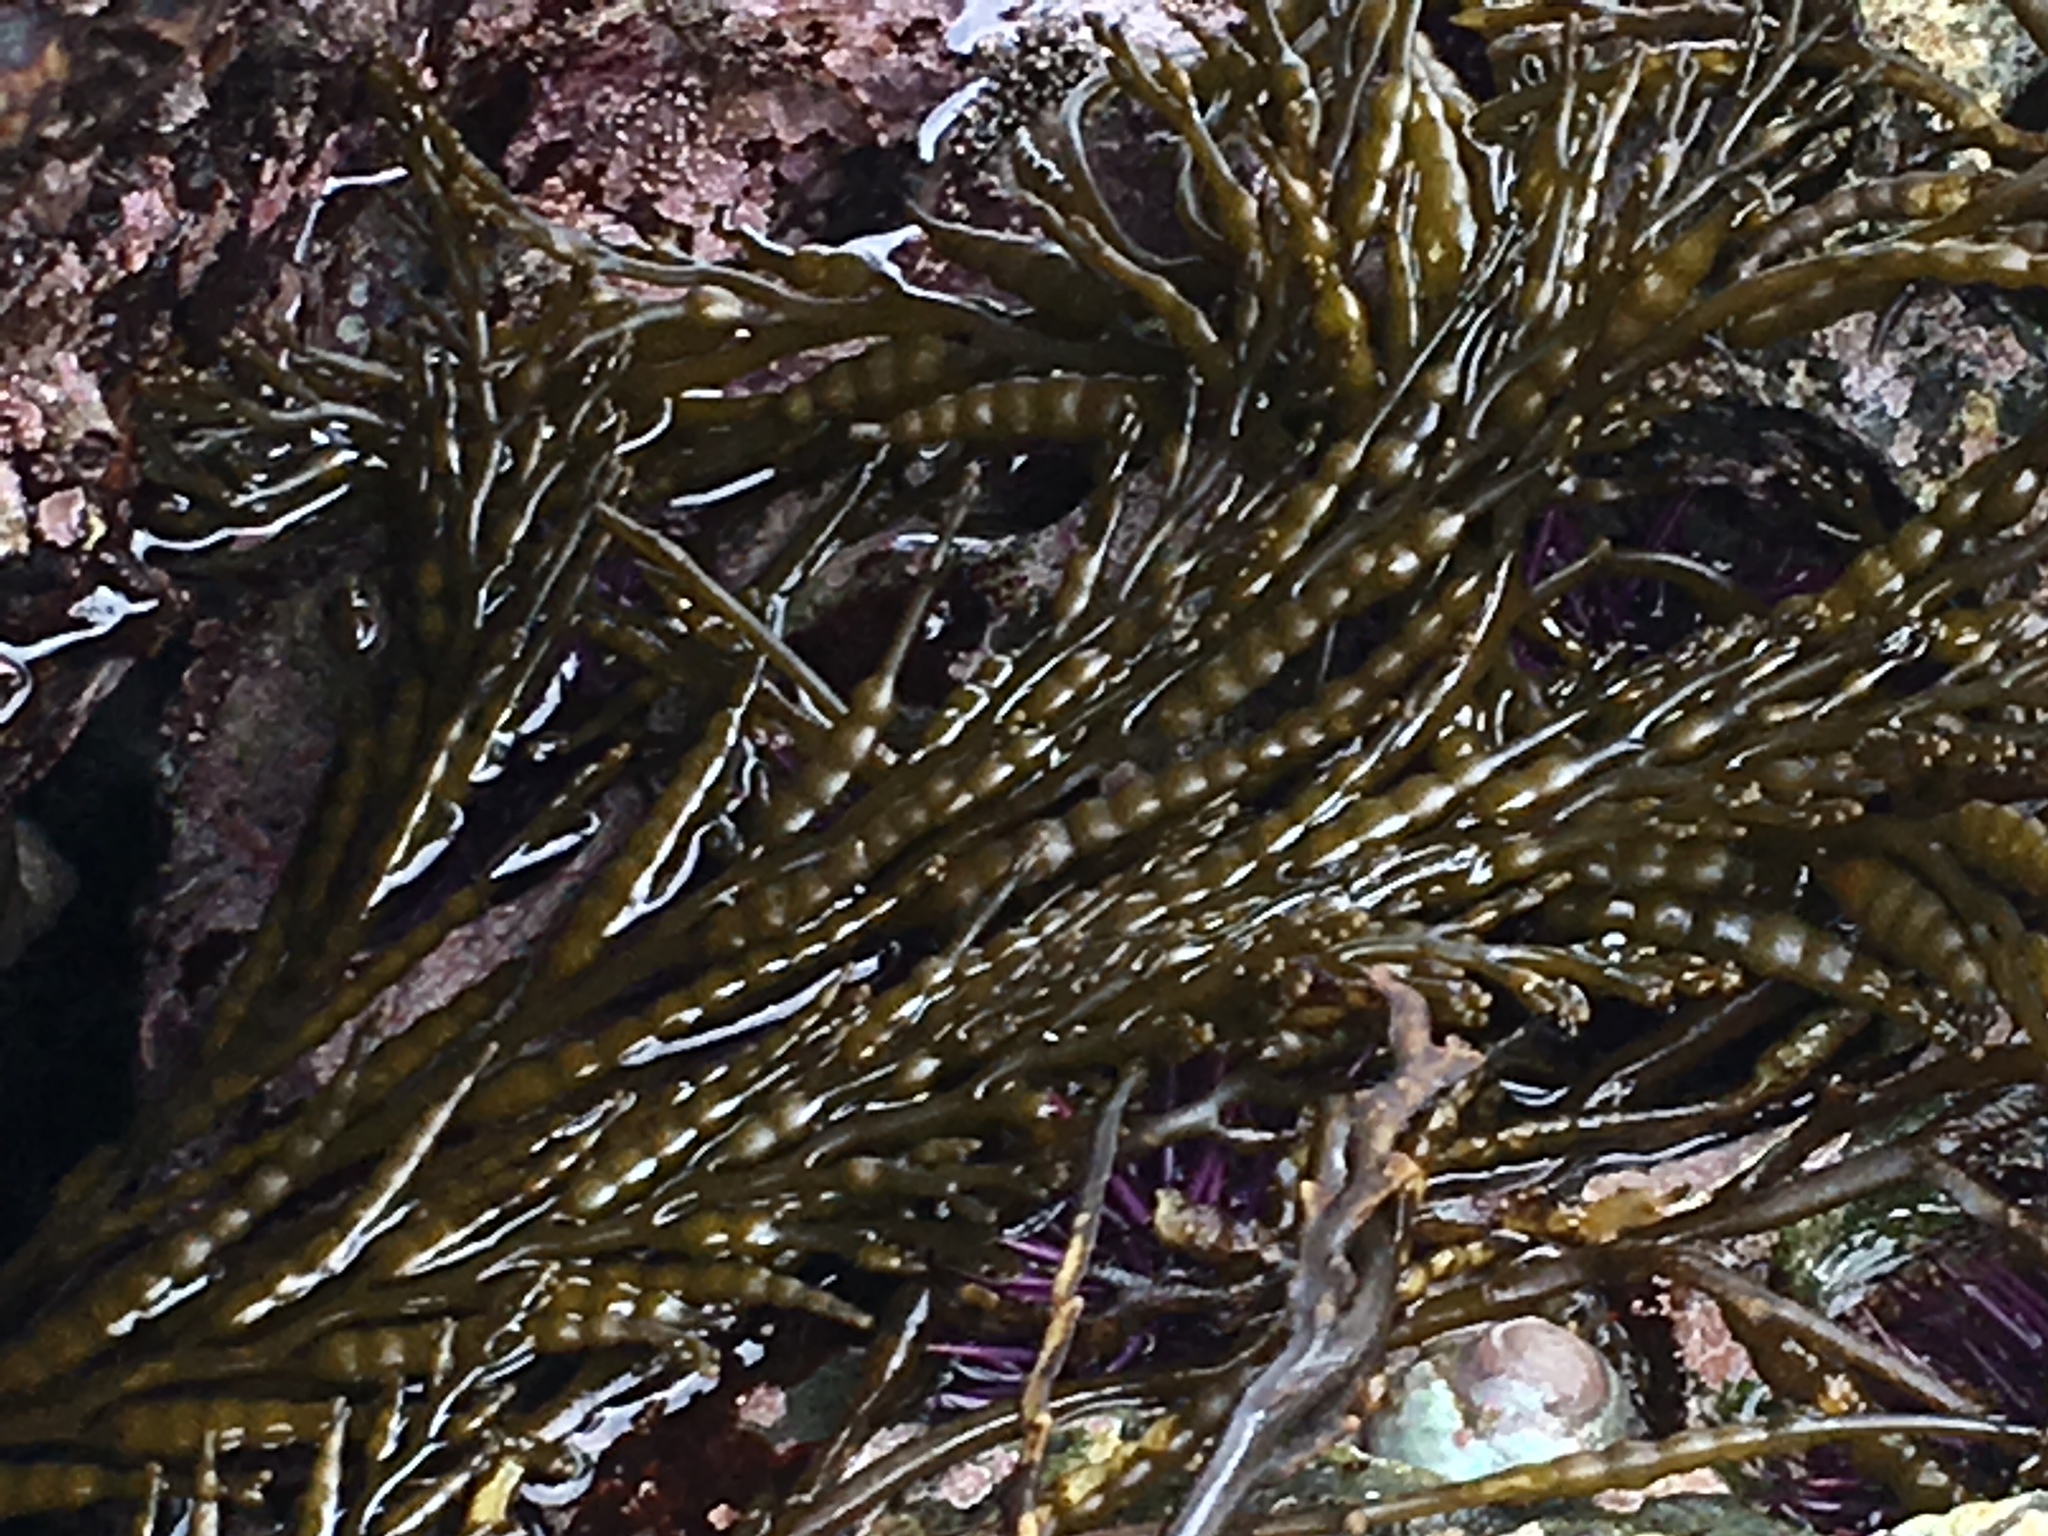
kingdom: Chromista
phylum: Ochrophyta
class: Phaeophyceae
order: Fucales
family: Sargassaceae
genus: Stephanocystis
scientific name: Stephanocystis
